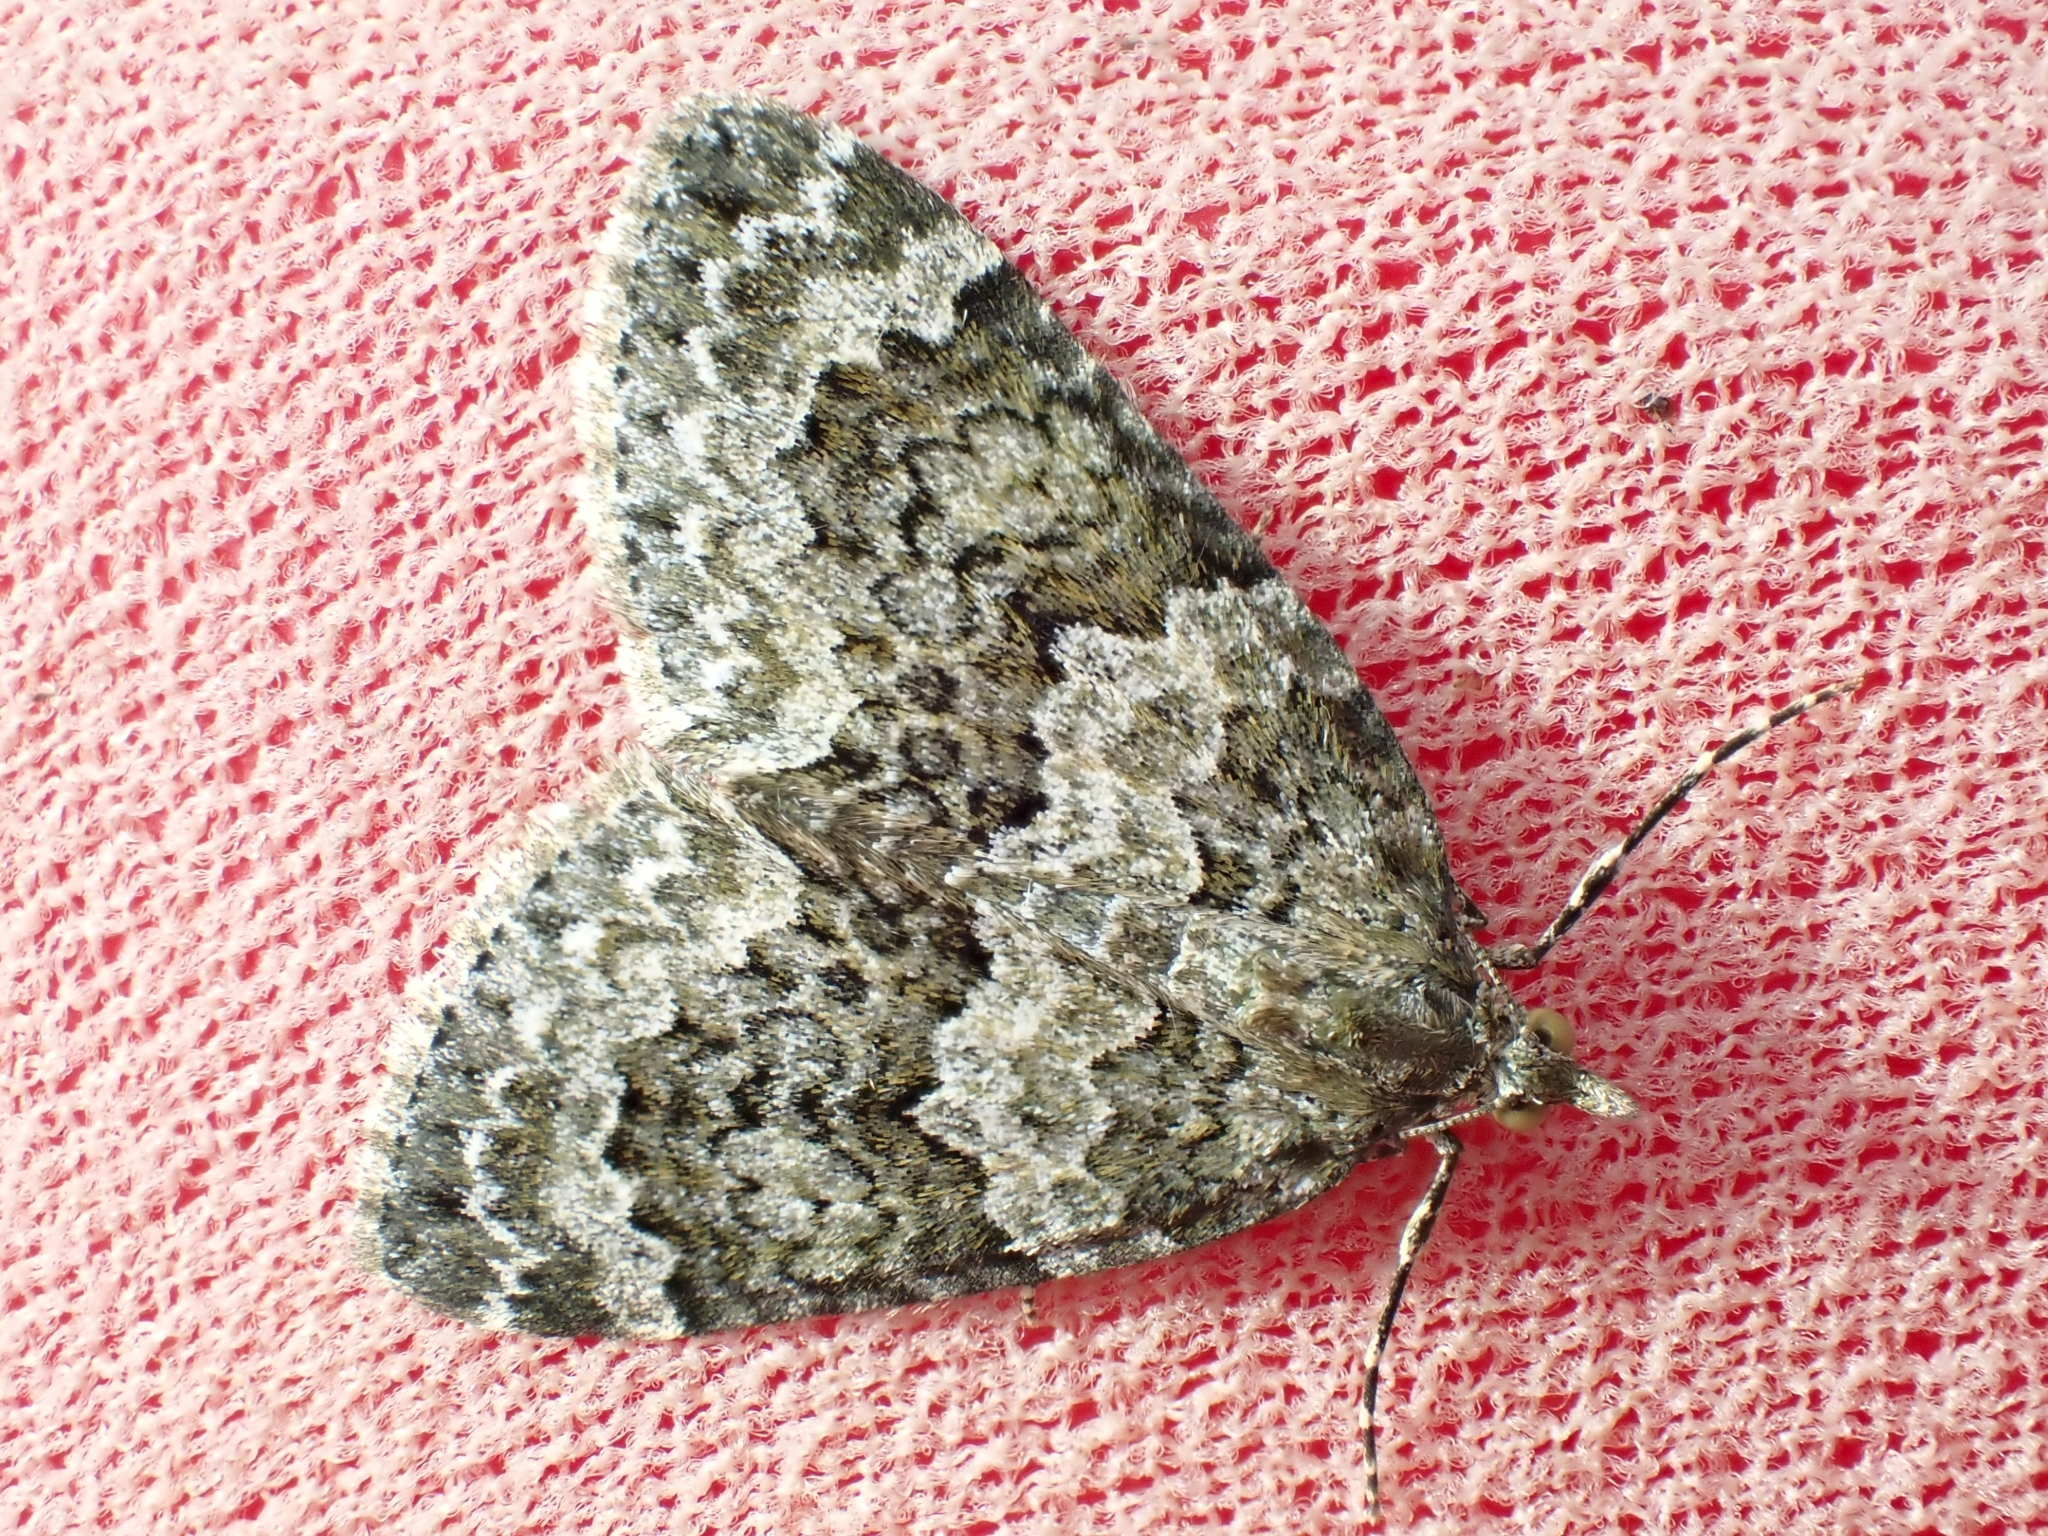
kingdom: Animalia
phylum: Arthropoda
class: Insecta
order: Lepidoptera
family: Geometridae
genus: Chloroclysta
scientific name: Chloroclysta miata
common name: Autumn green carpet
